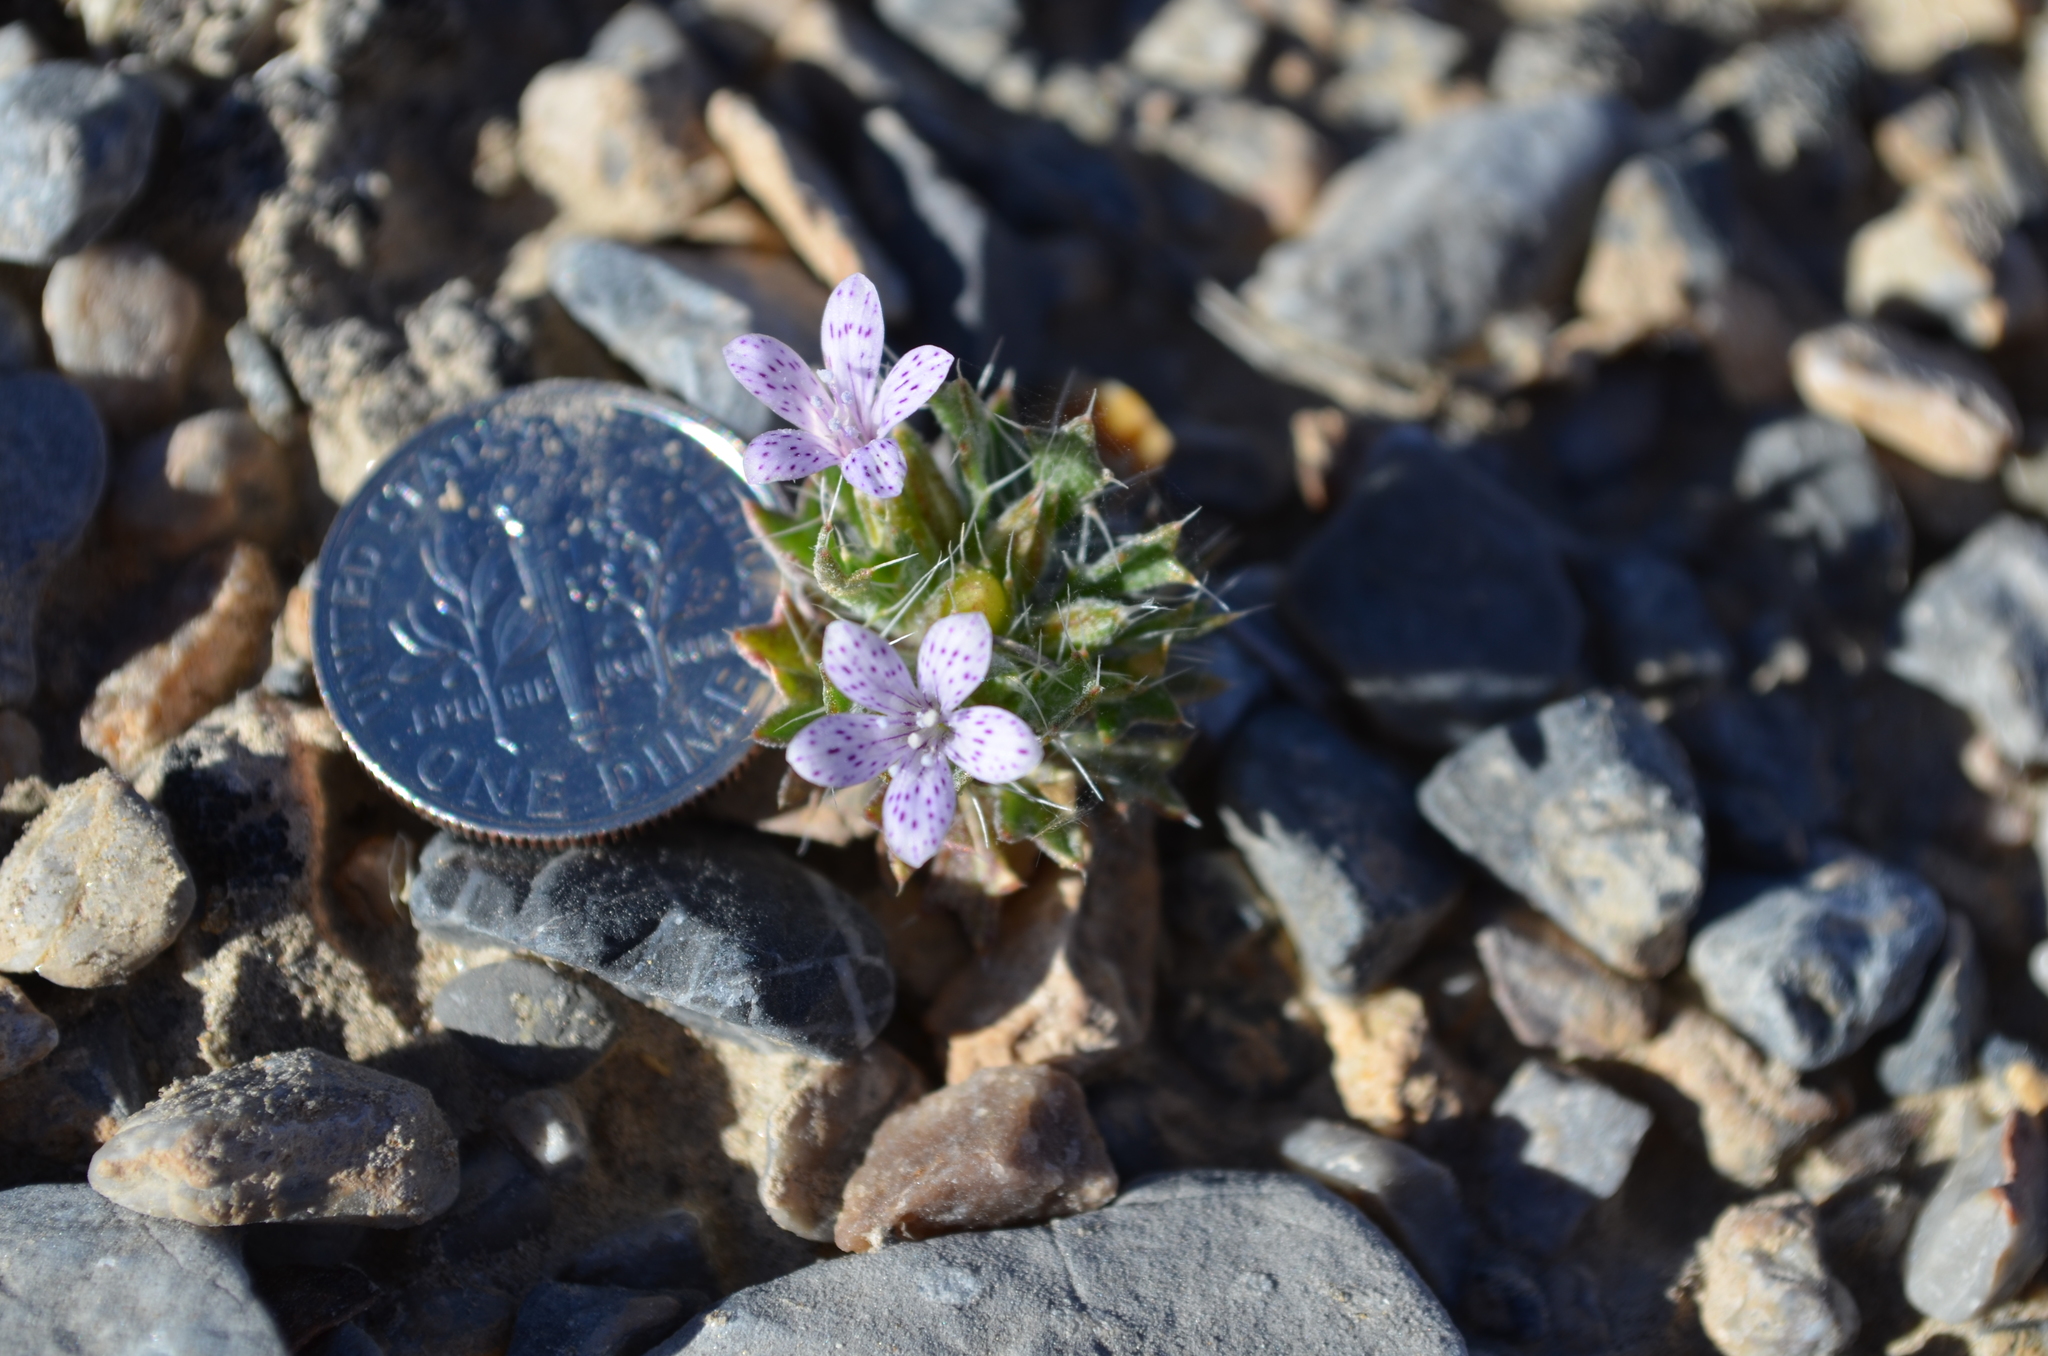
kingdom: Plantae
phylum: Tracheophyta
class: Magnoliopsida
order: Ericales
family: Polemoniaceae
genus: Langloisia
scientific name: Langloisia setosissima
